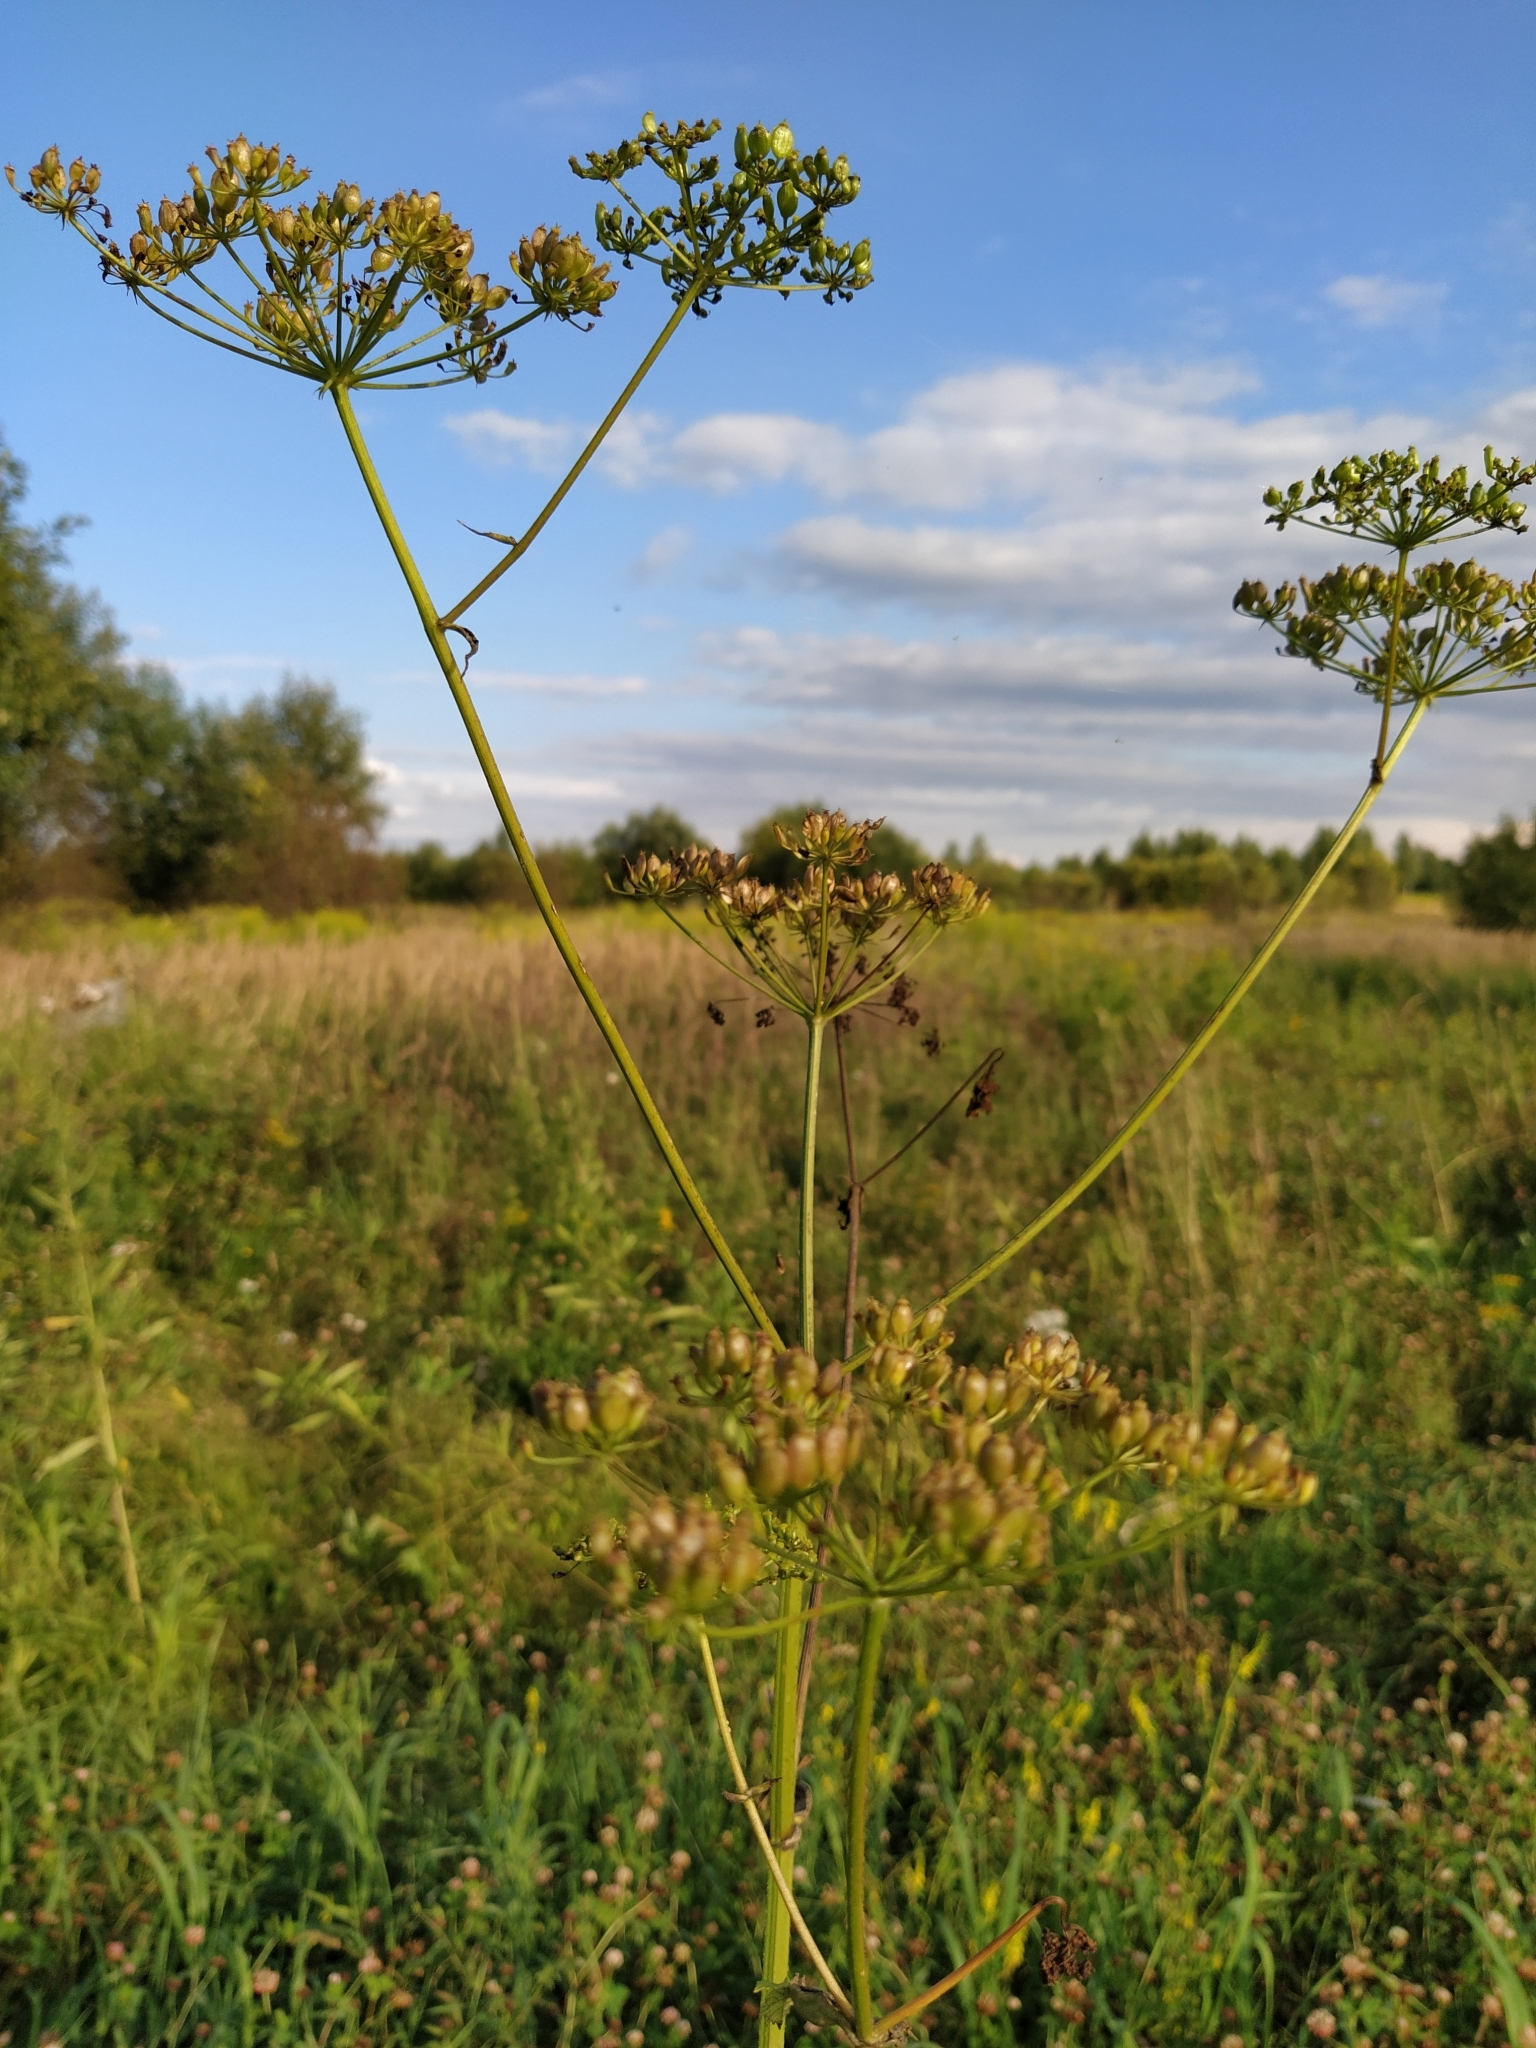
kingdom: Plantae
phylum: Tracheophyta
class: Magnoliopsida
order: Apiales
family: Apiaceae
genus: Heracleum
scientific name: Heracleum sphondylium
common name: Hogweed
